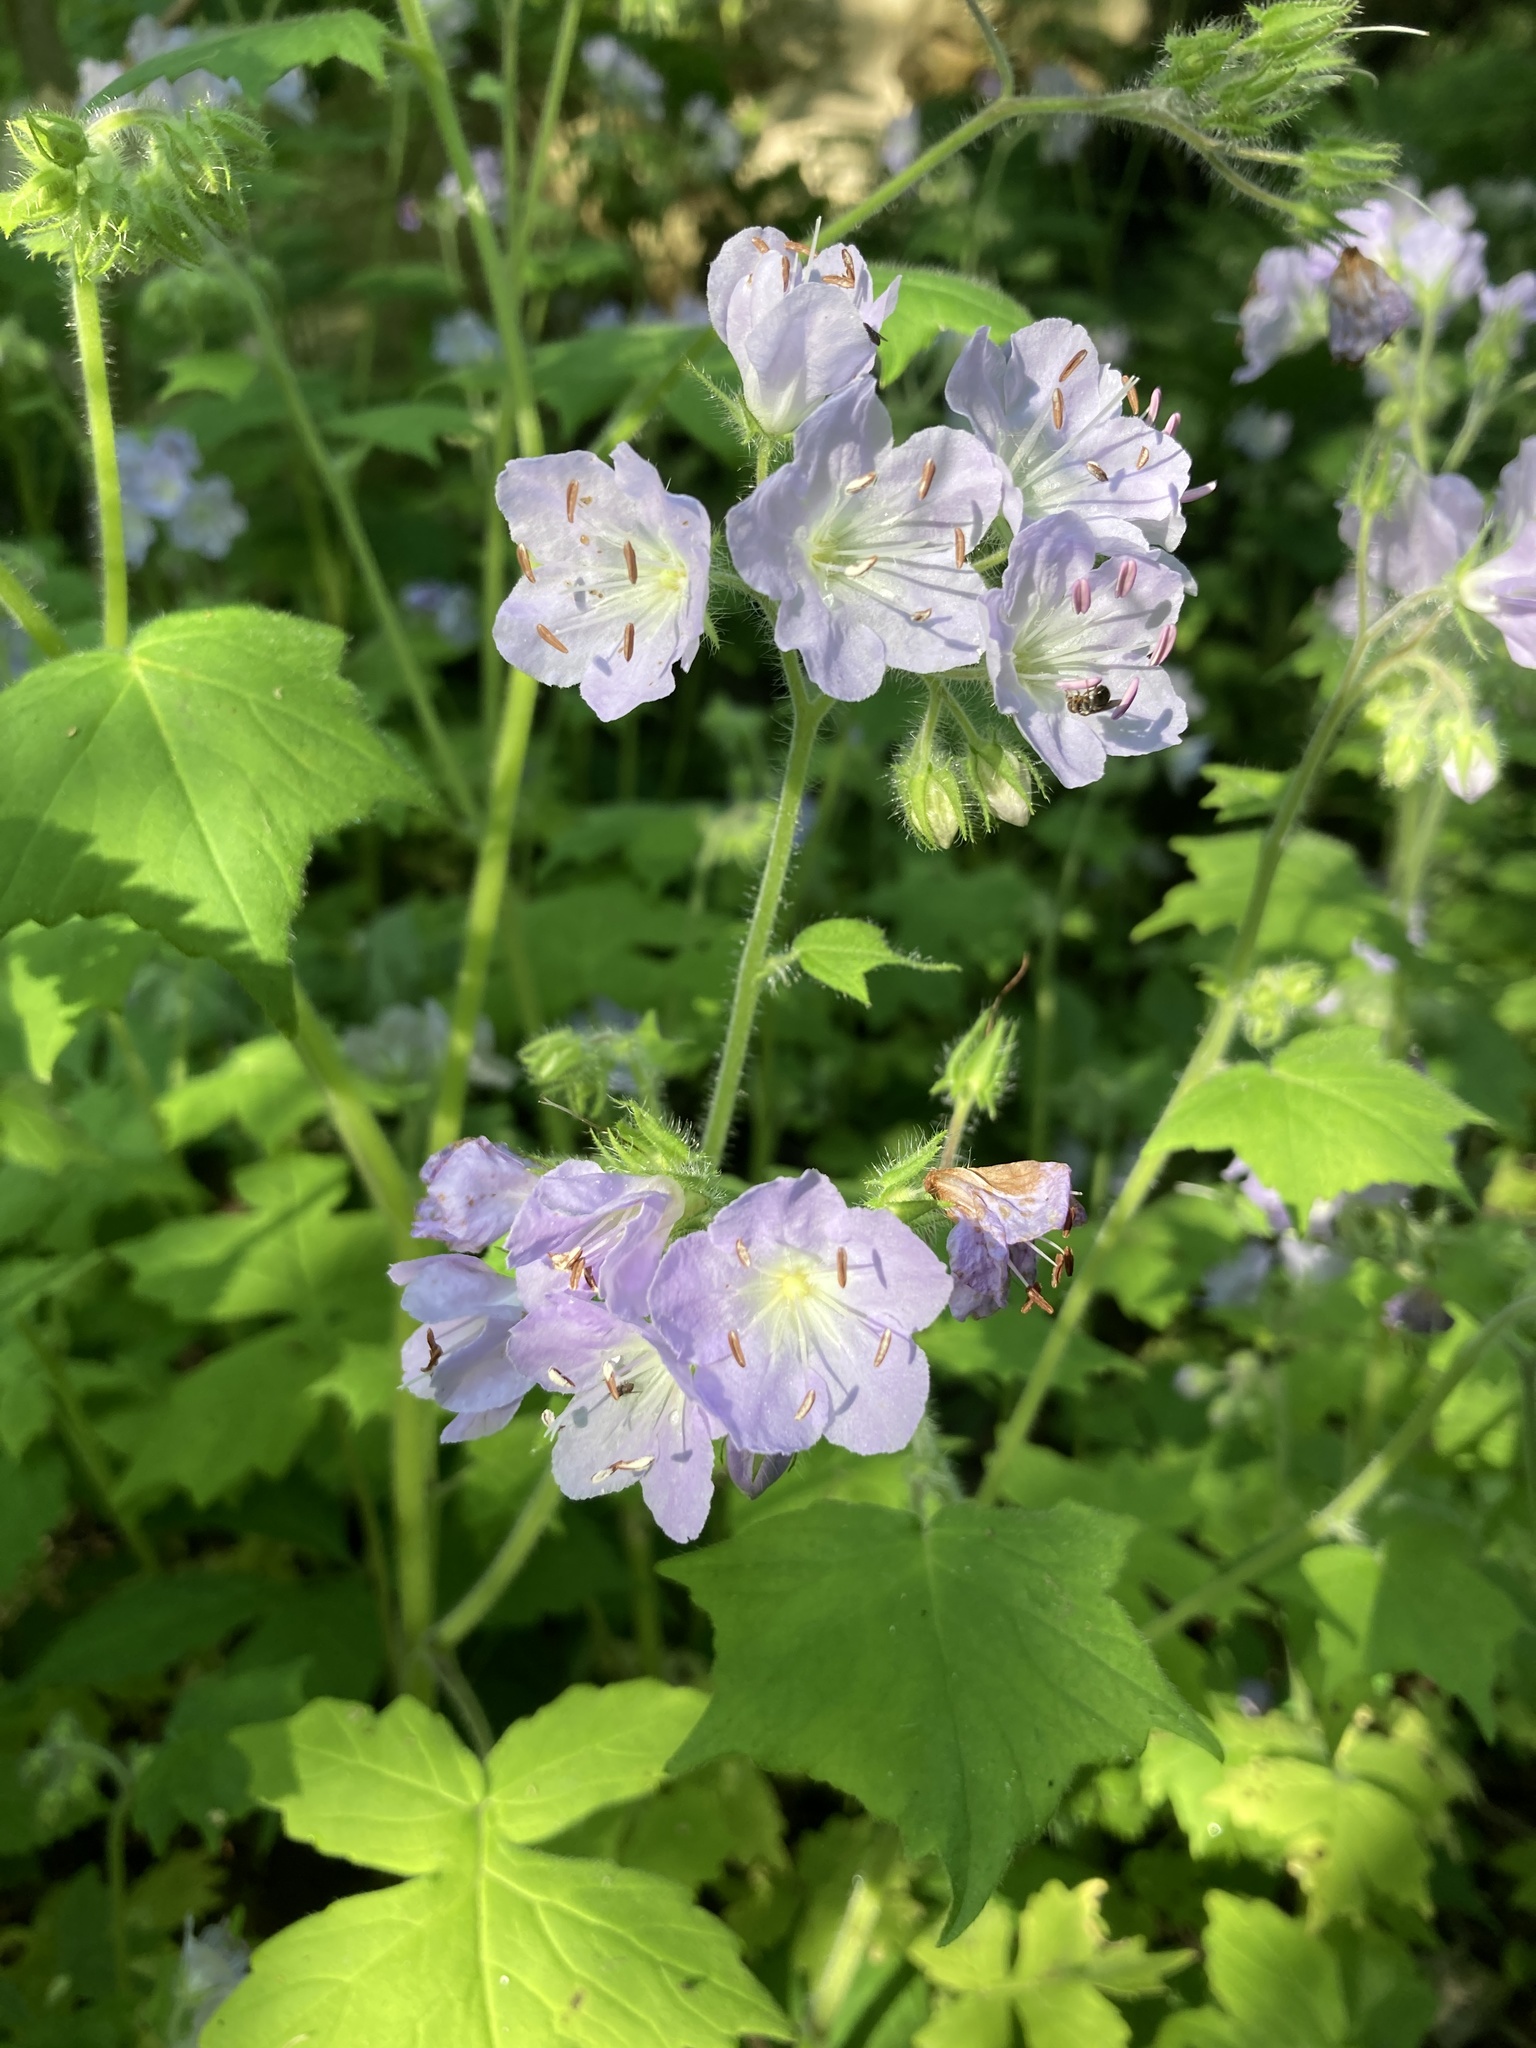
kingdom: Plantae
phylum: Tracheophyta
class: Magnoliopsida
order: Boraginales
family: Hydrophyllaceae
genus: Hydrophyllum
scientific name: Hydrophyllum appendiculatum
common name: Appendaged waterleaf
